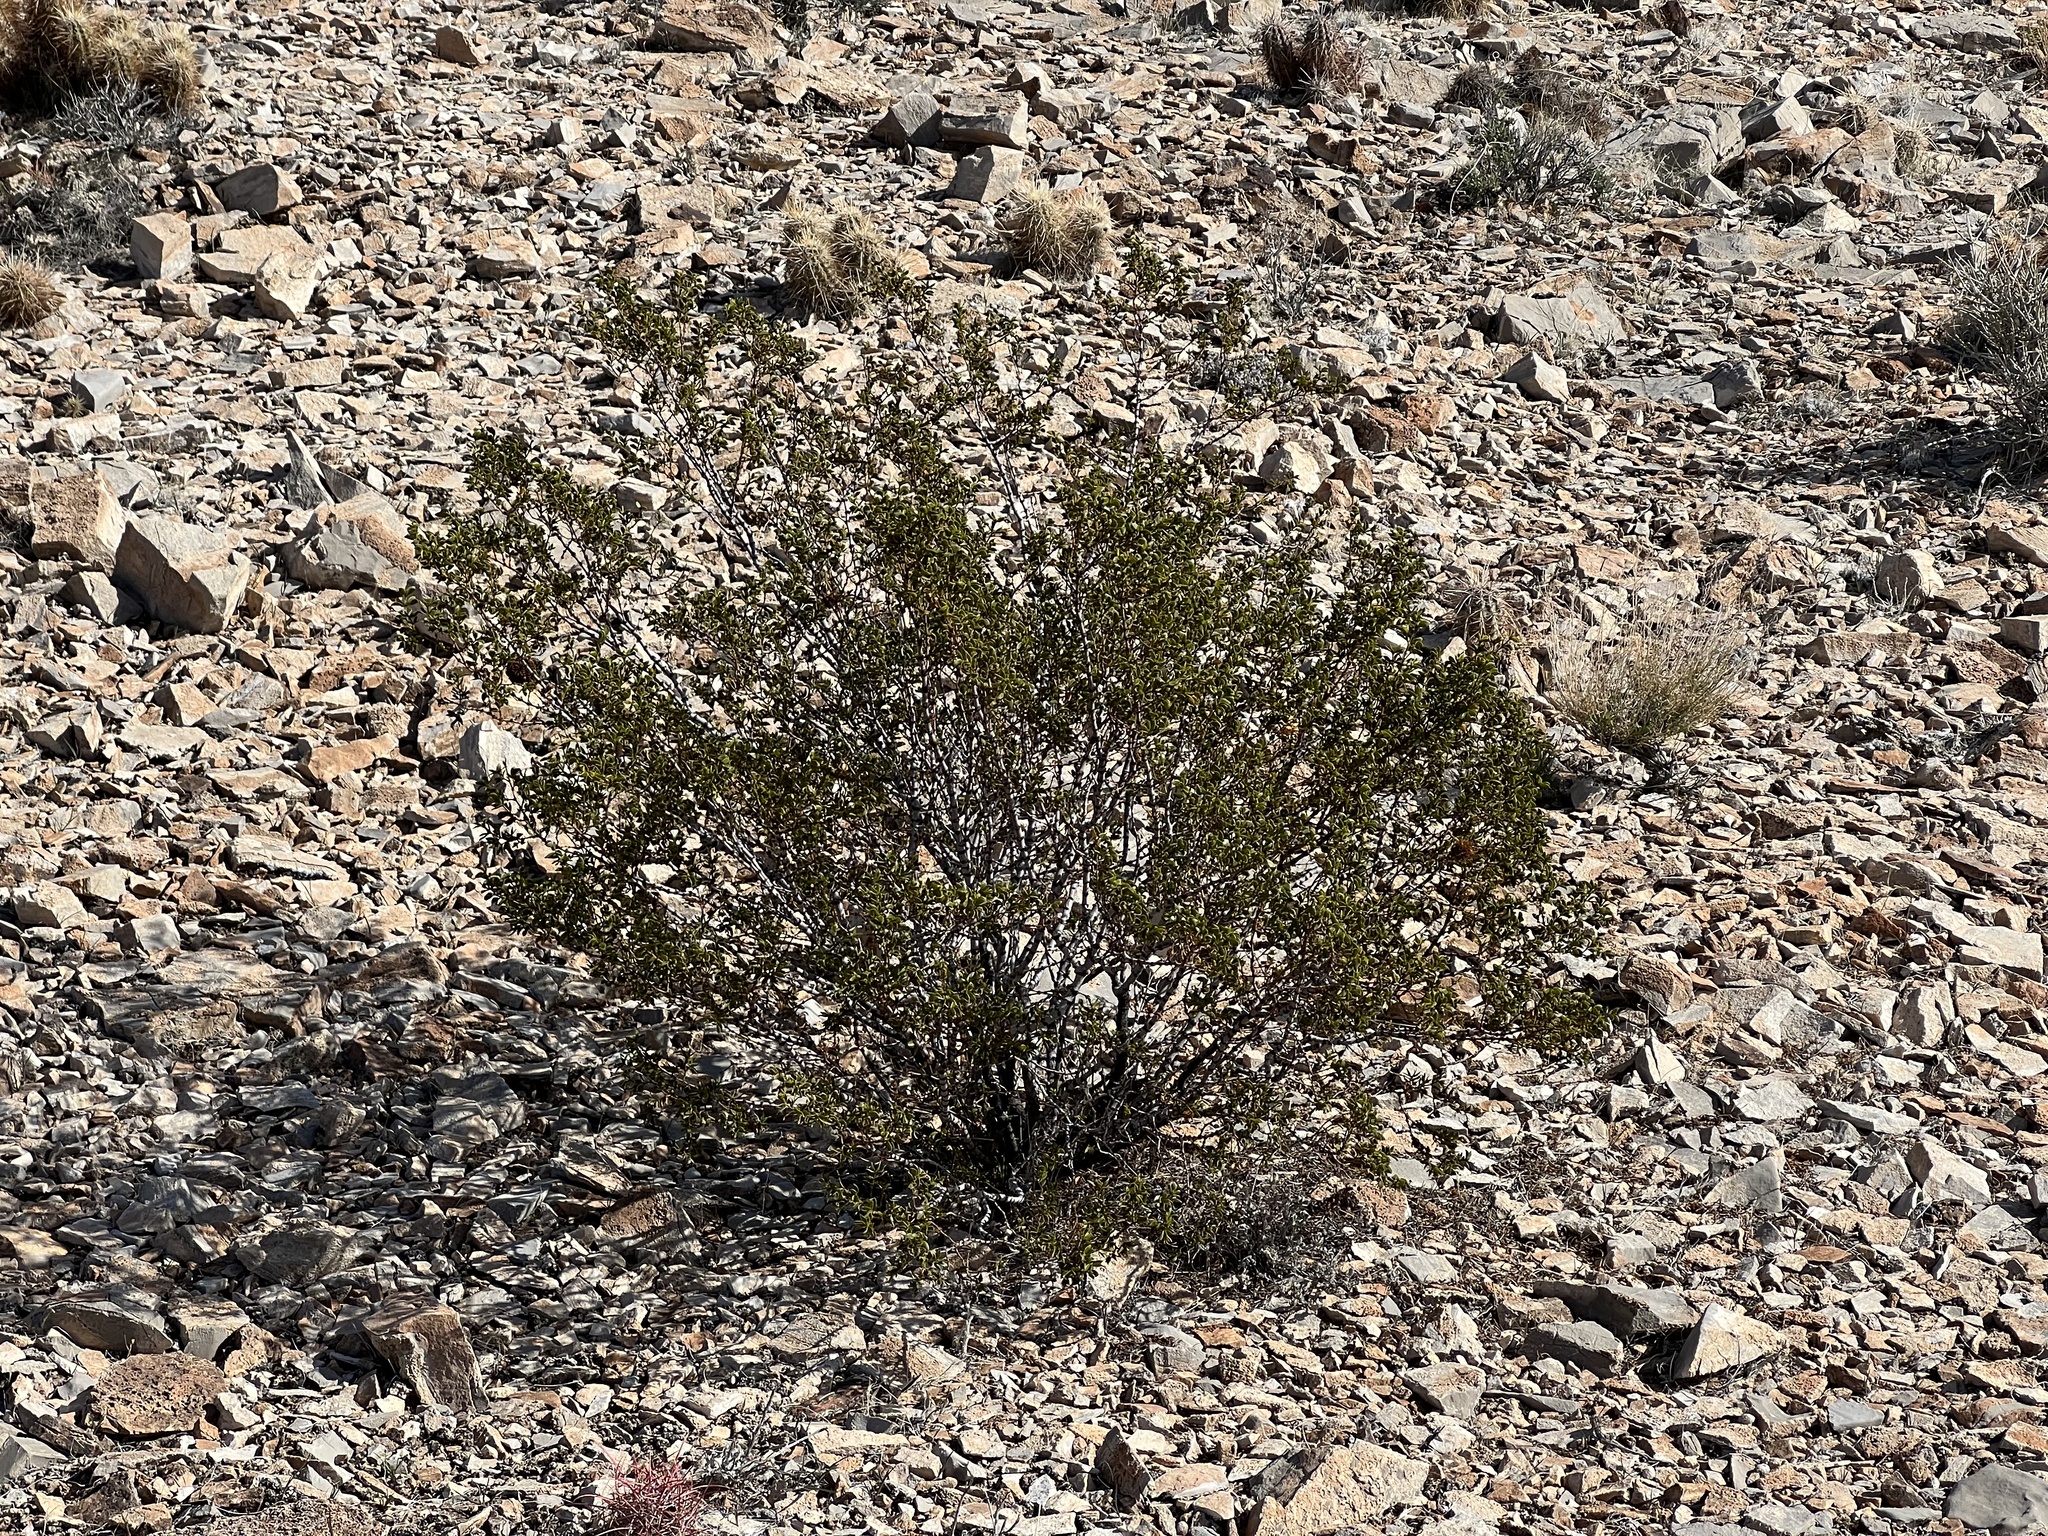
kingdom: Plantae
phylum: Tracheophyta
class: Magnoliopsida
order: Zygophyllales
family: Zygophyllaceae
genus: Larrea
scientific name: Larrea tridentata
